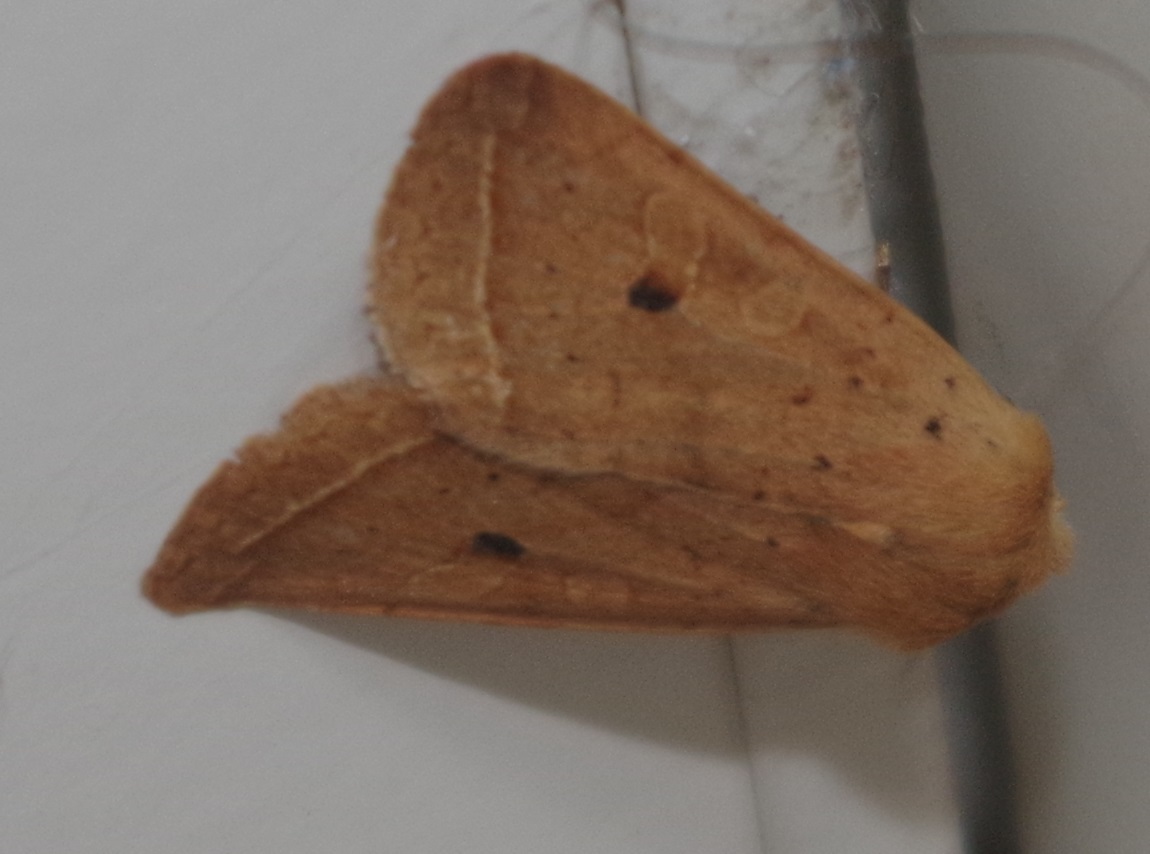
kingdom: Animalia
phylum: Arthropoda
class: Insecta
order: Lepidoptera
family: Noctuidae
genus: Agrochola
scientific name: Agrochola macilenta
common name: Yellow-line quaker
